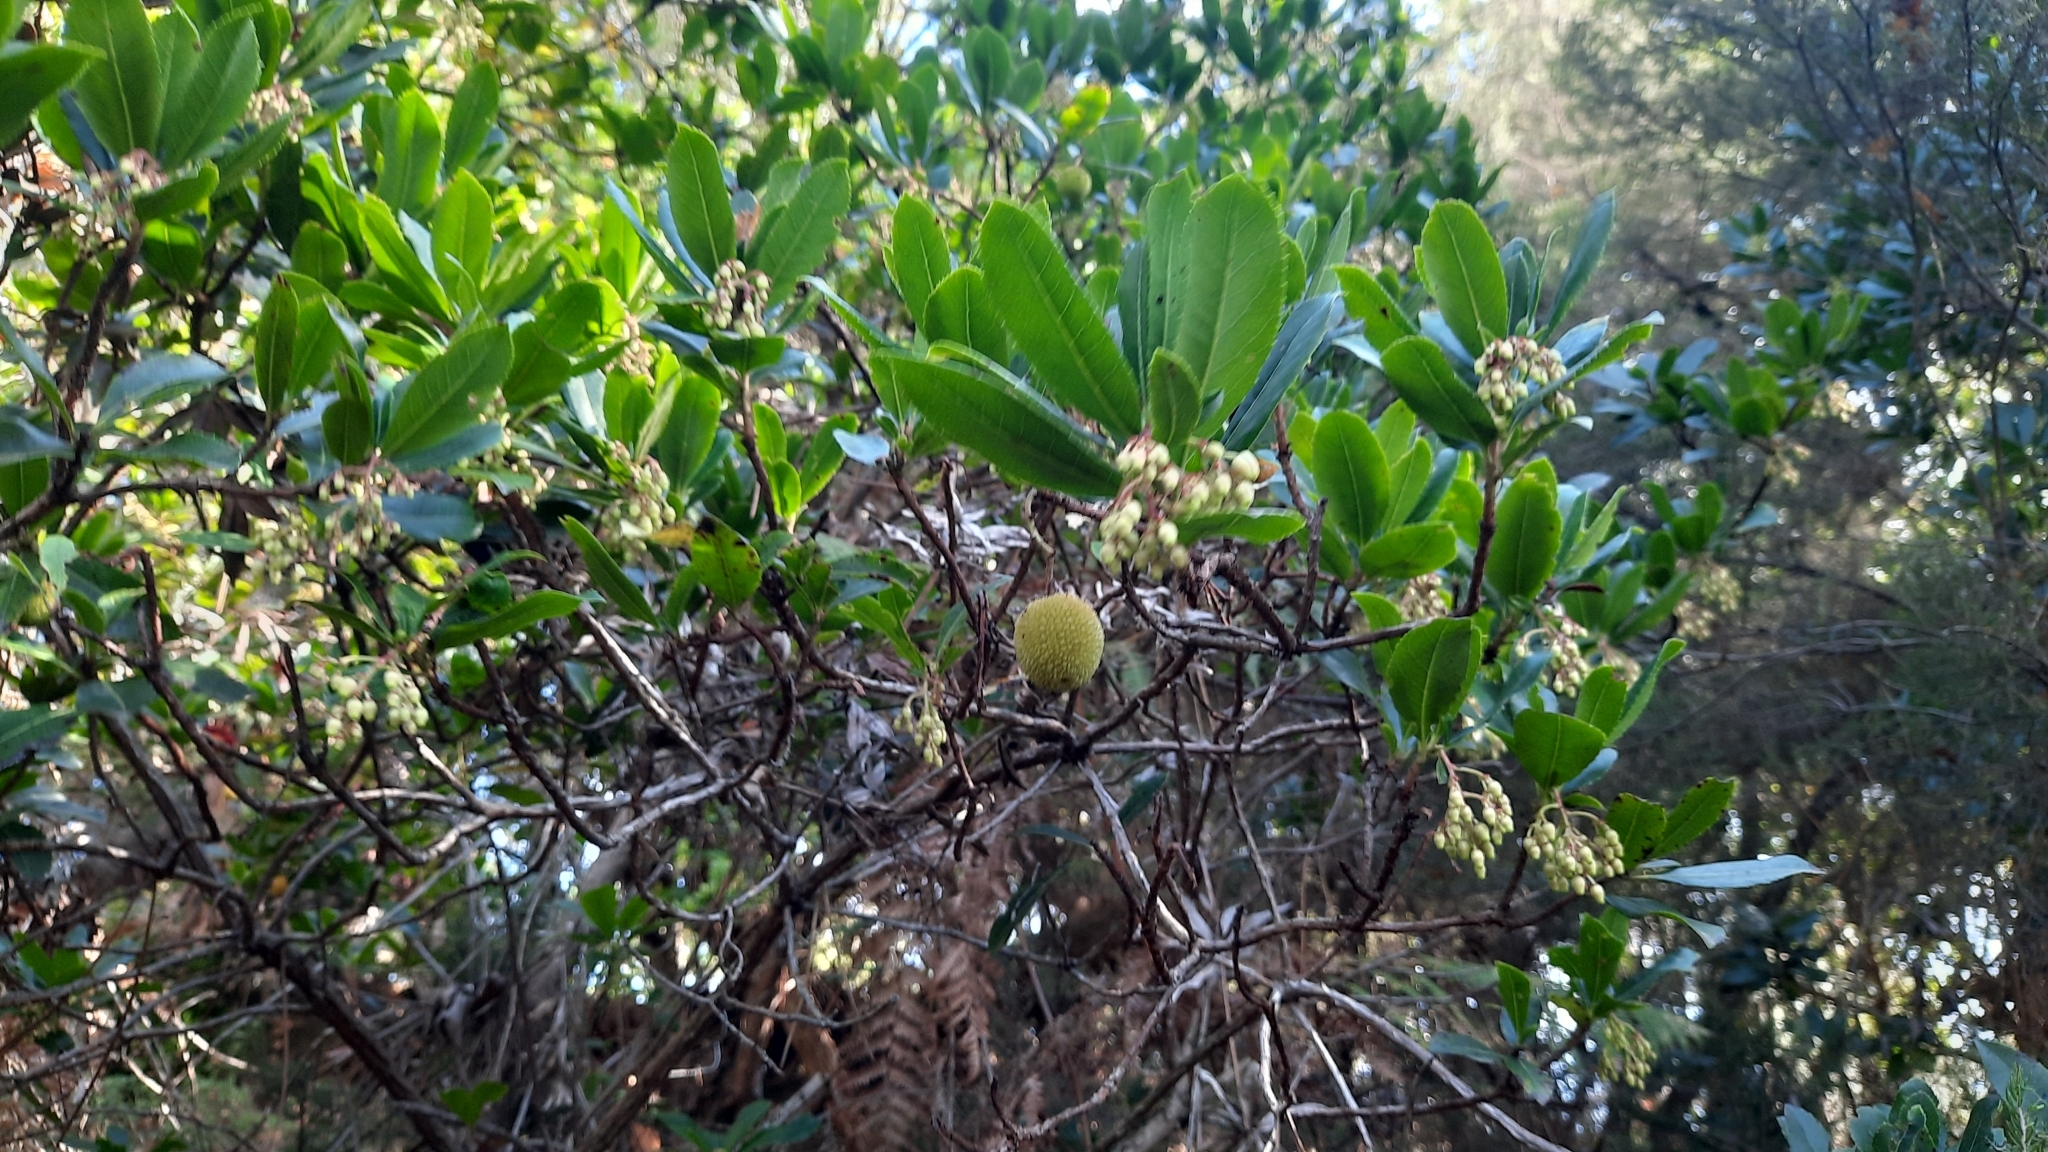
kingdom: Plantae
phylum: Tracheophyta
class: Magnoliopsida
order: Ericales
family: Ericaceae
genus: Arbutus
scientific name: Arbutus unedo
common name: Strawberry-tree
